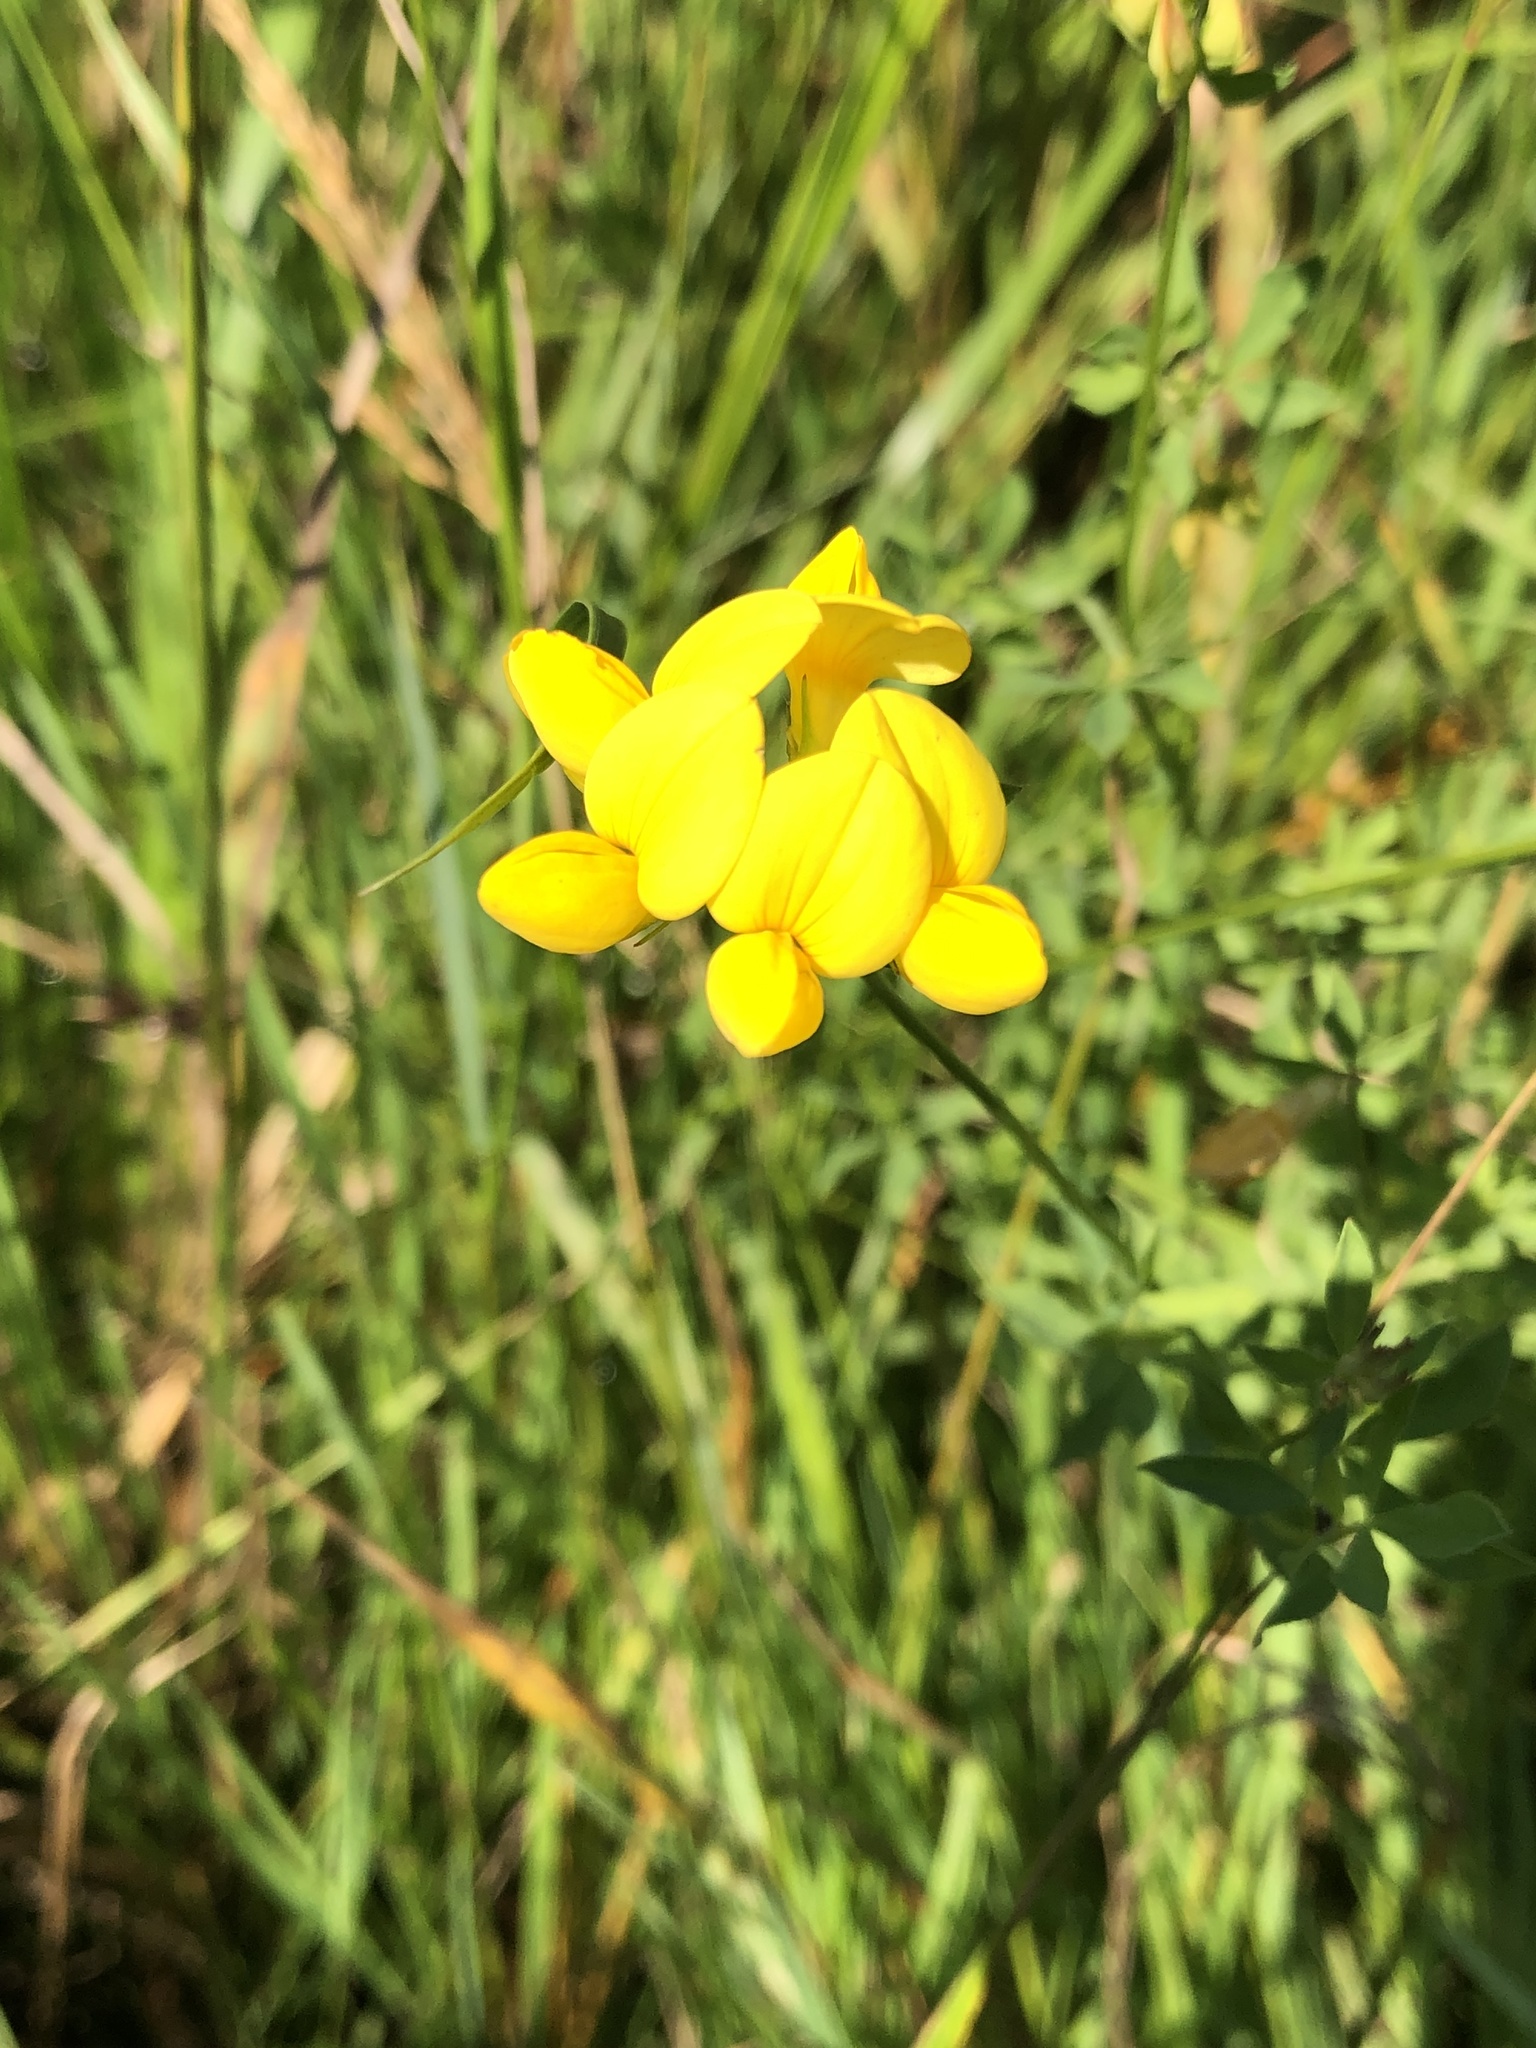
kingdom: Plantae
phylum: Tracheophyta
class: Magnoliopsida
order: Fabales
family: Fabaceae
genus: Lotus
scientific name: Lotus corniculatus
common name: Common bird's-foot-trefoil
